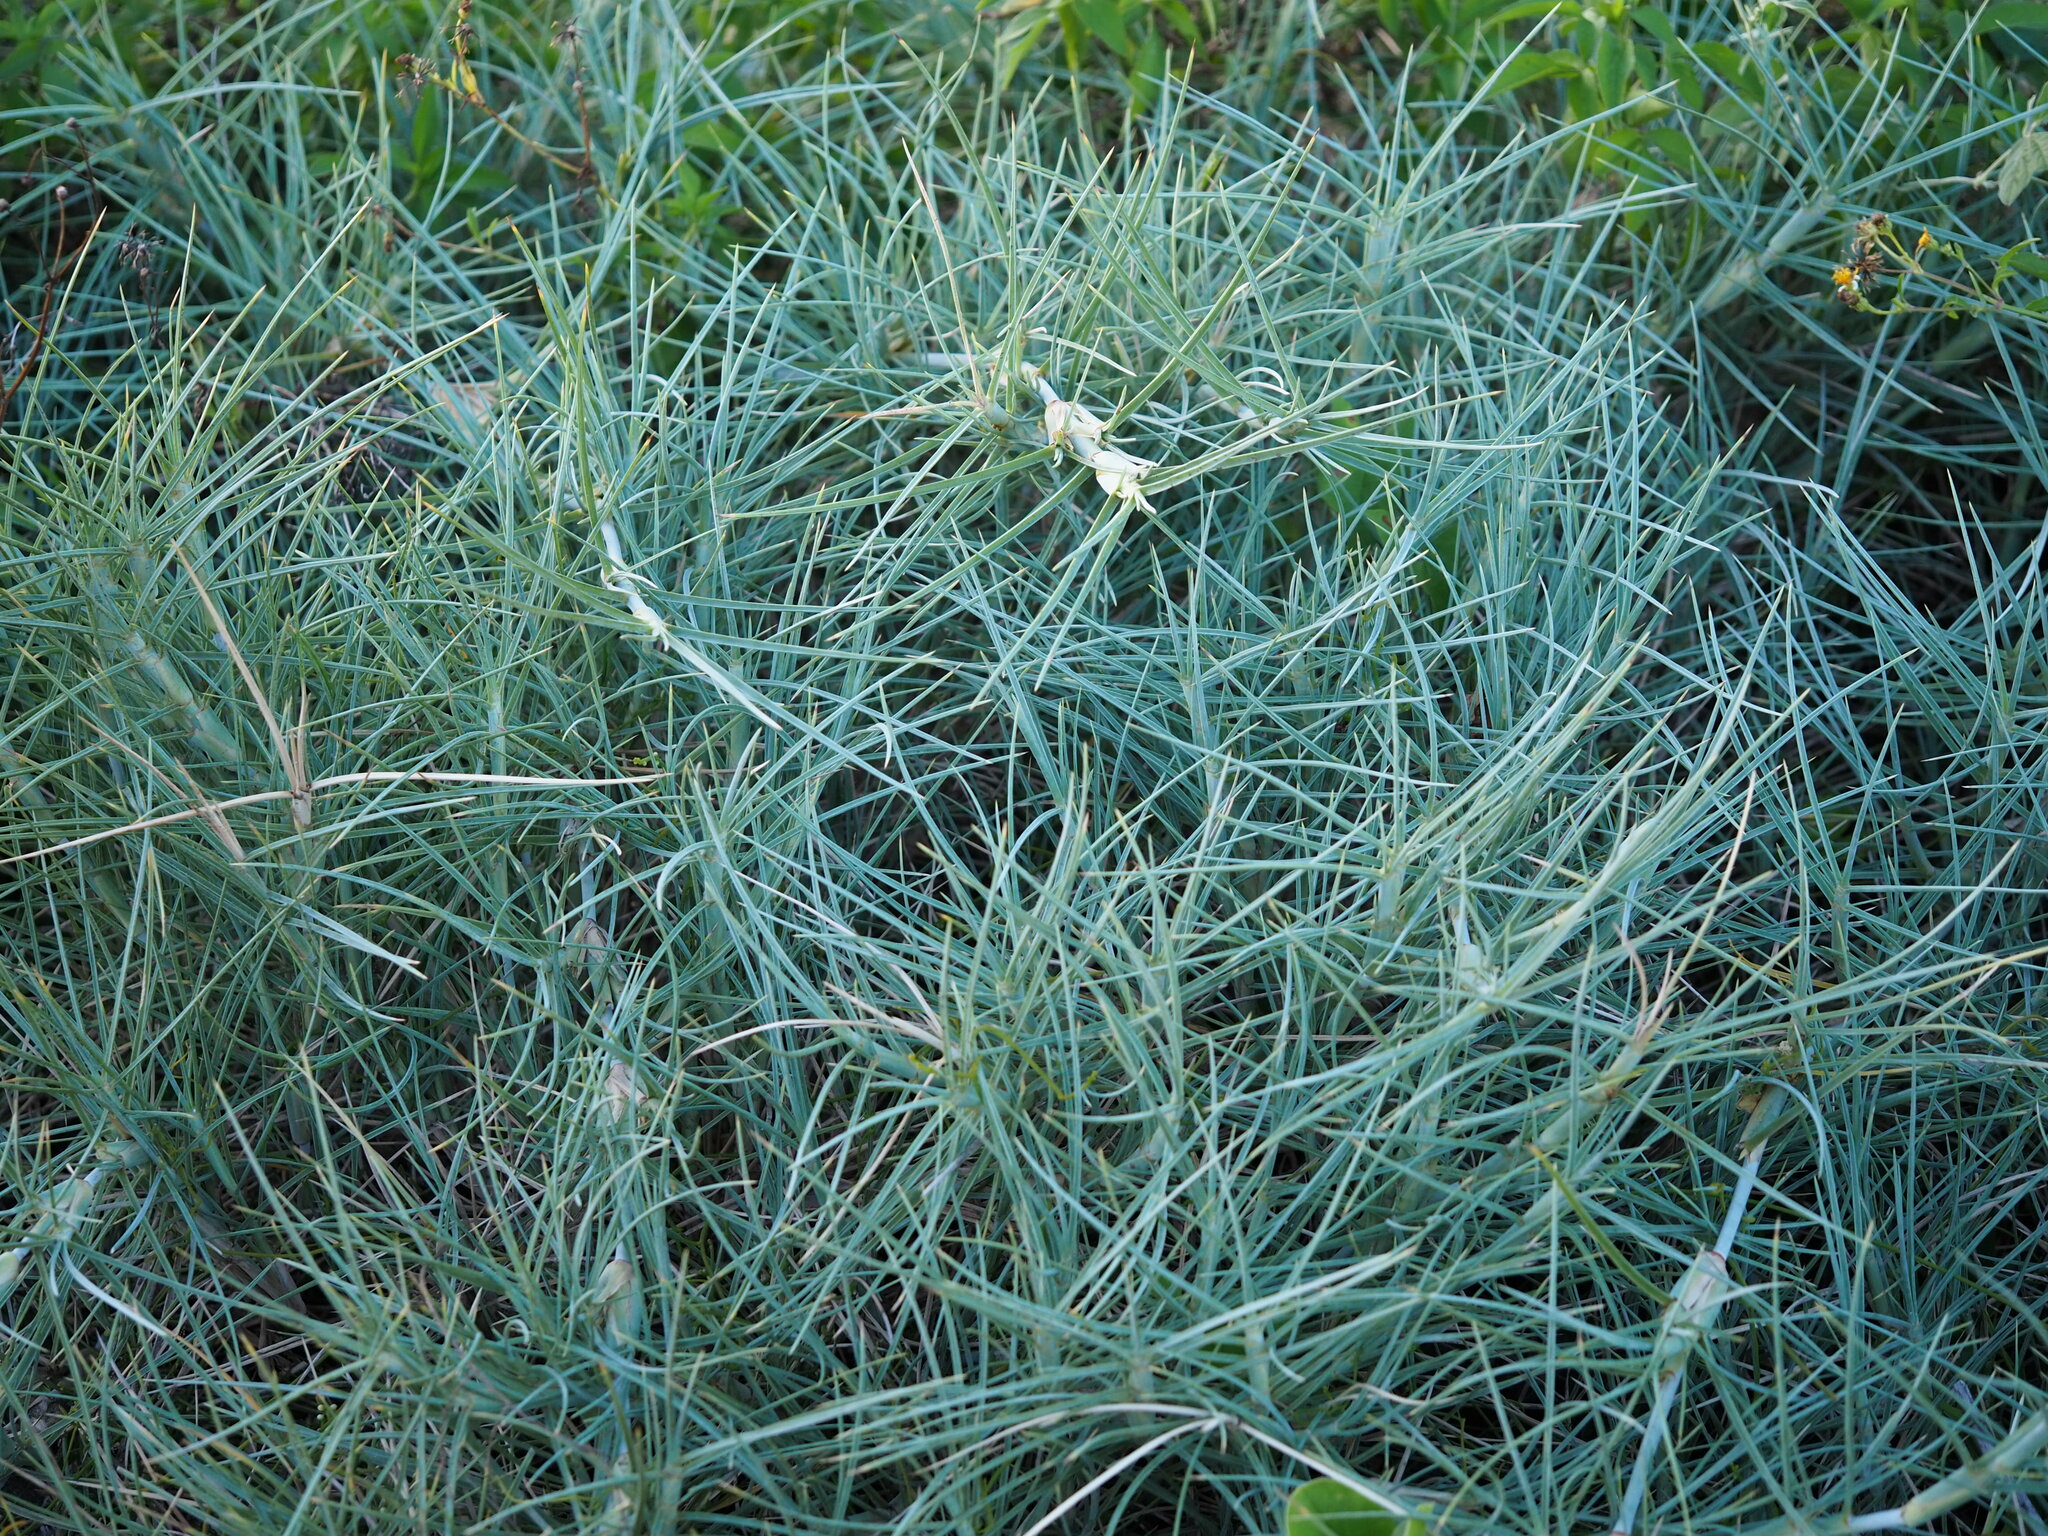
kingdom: Plantae
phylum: Tracheophyta
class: Liliopsida
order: Poales
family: Poaceae
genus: Spinifex
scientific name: Spinifex littoreus
